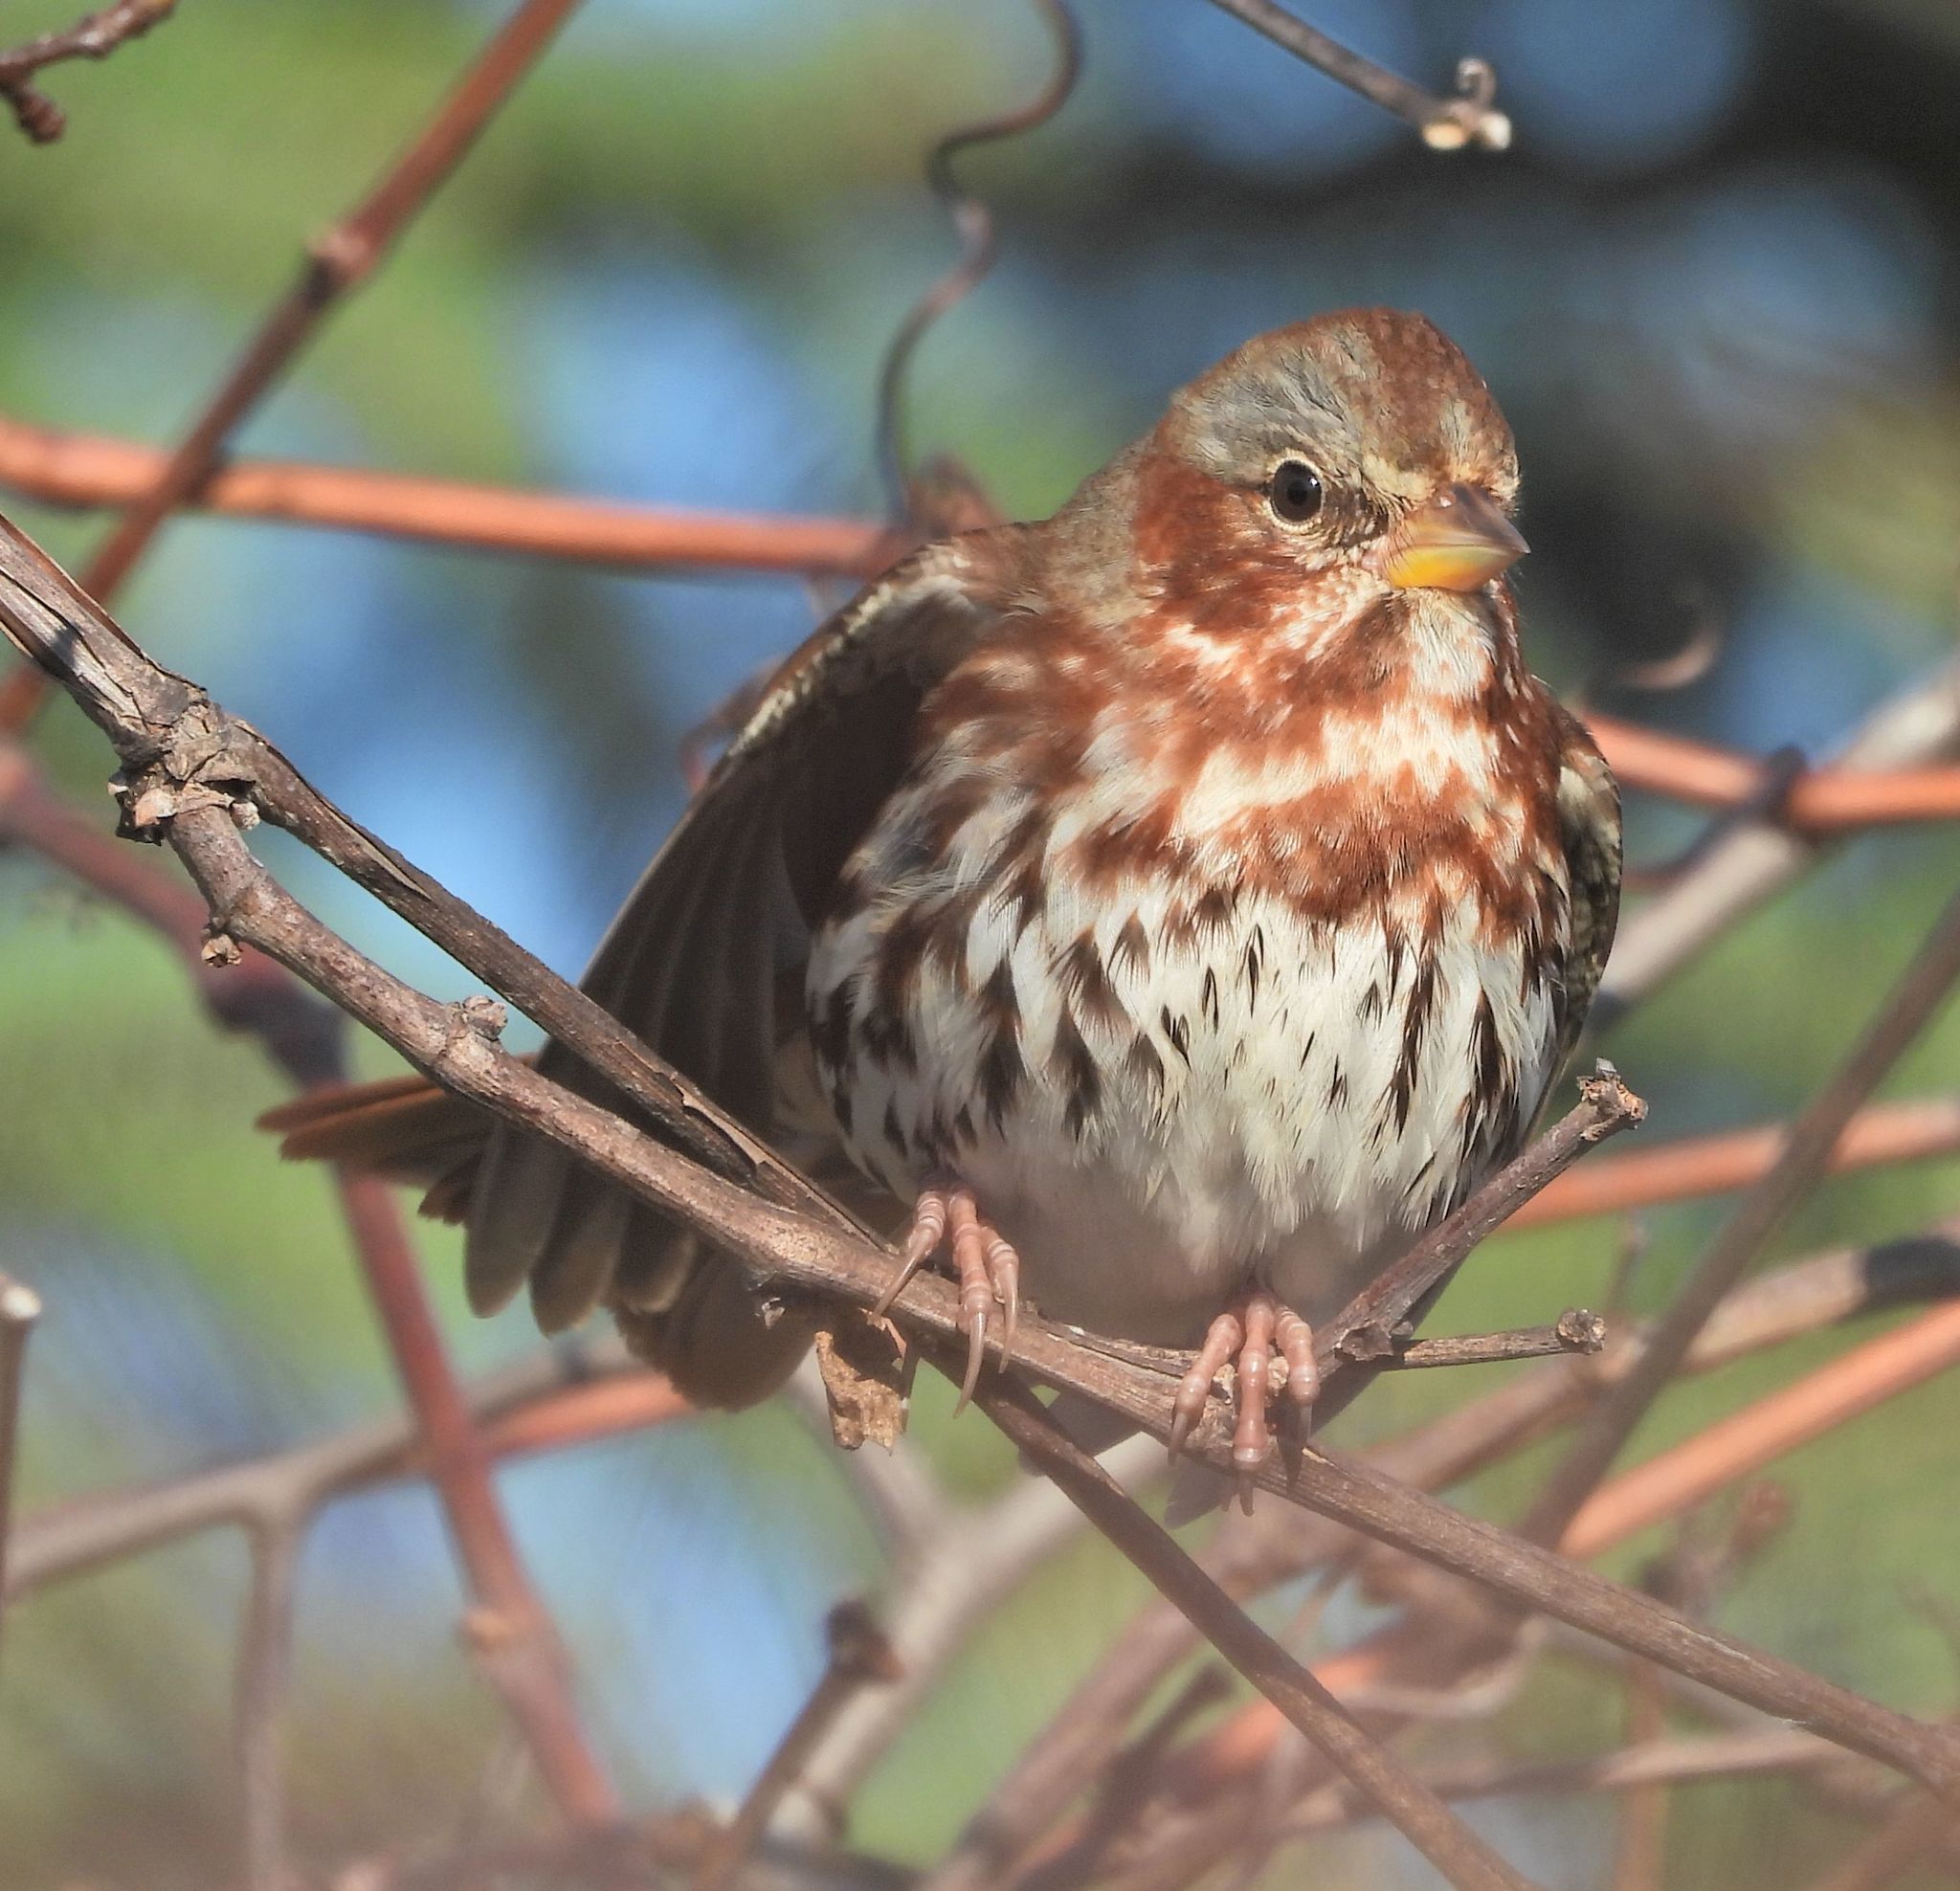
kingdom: Animalia
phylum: Chordata
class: Aves
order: Passeriformes
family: Passerellidae
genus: Passerella
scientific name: Passerella iliaca
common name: Fox sparrow
